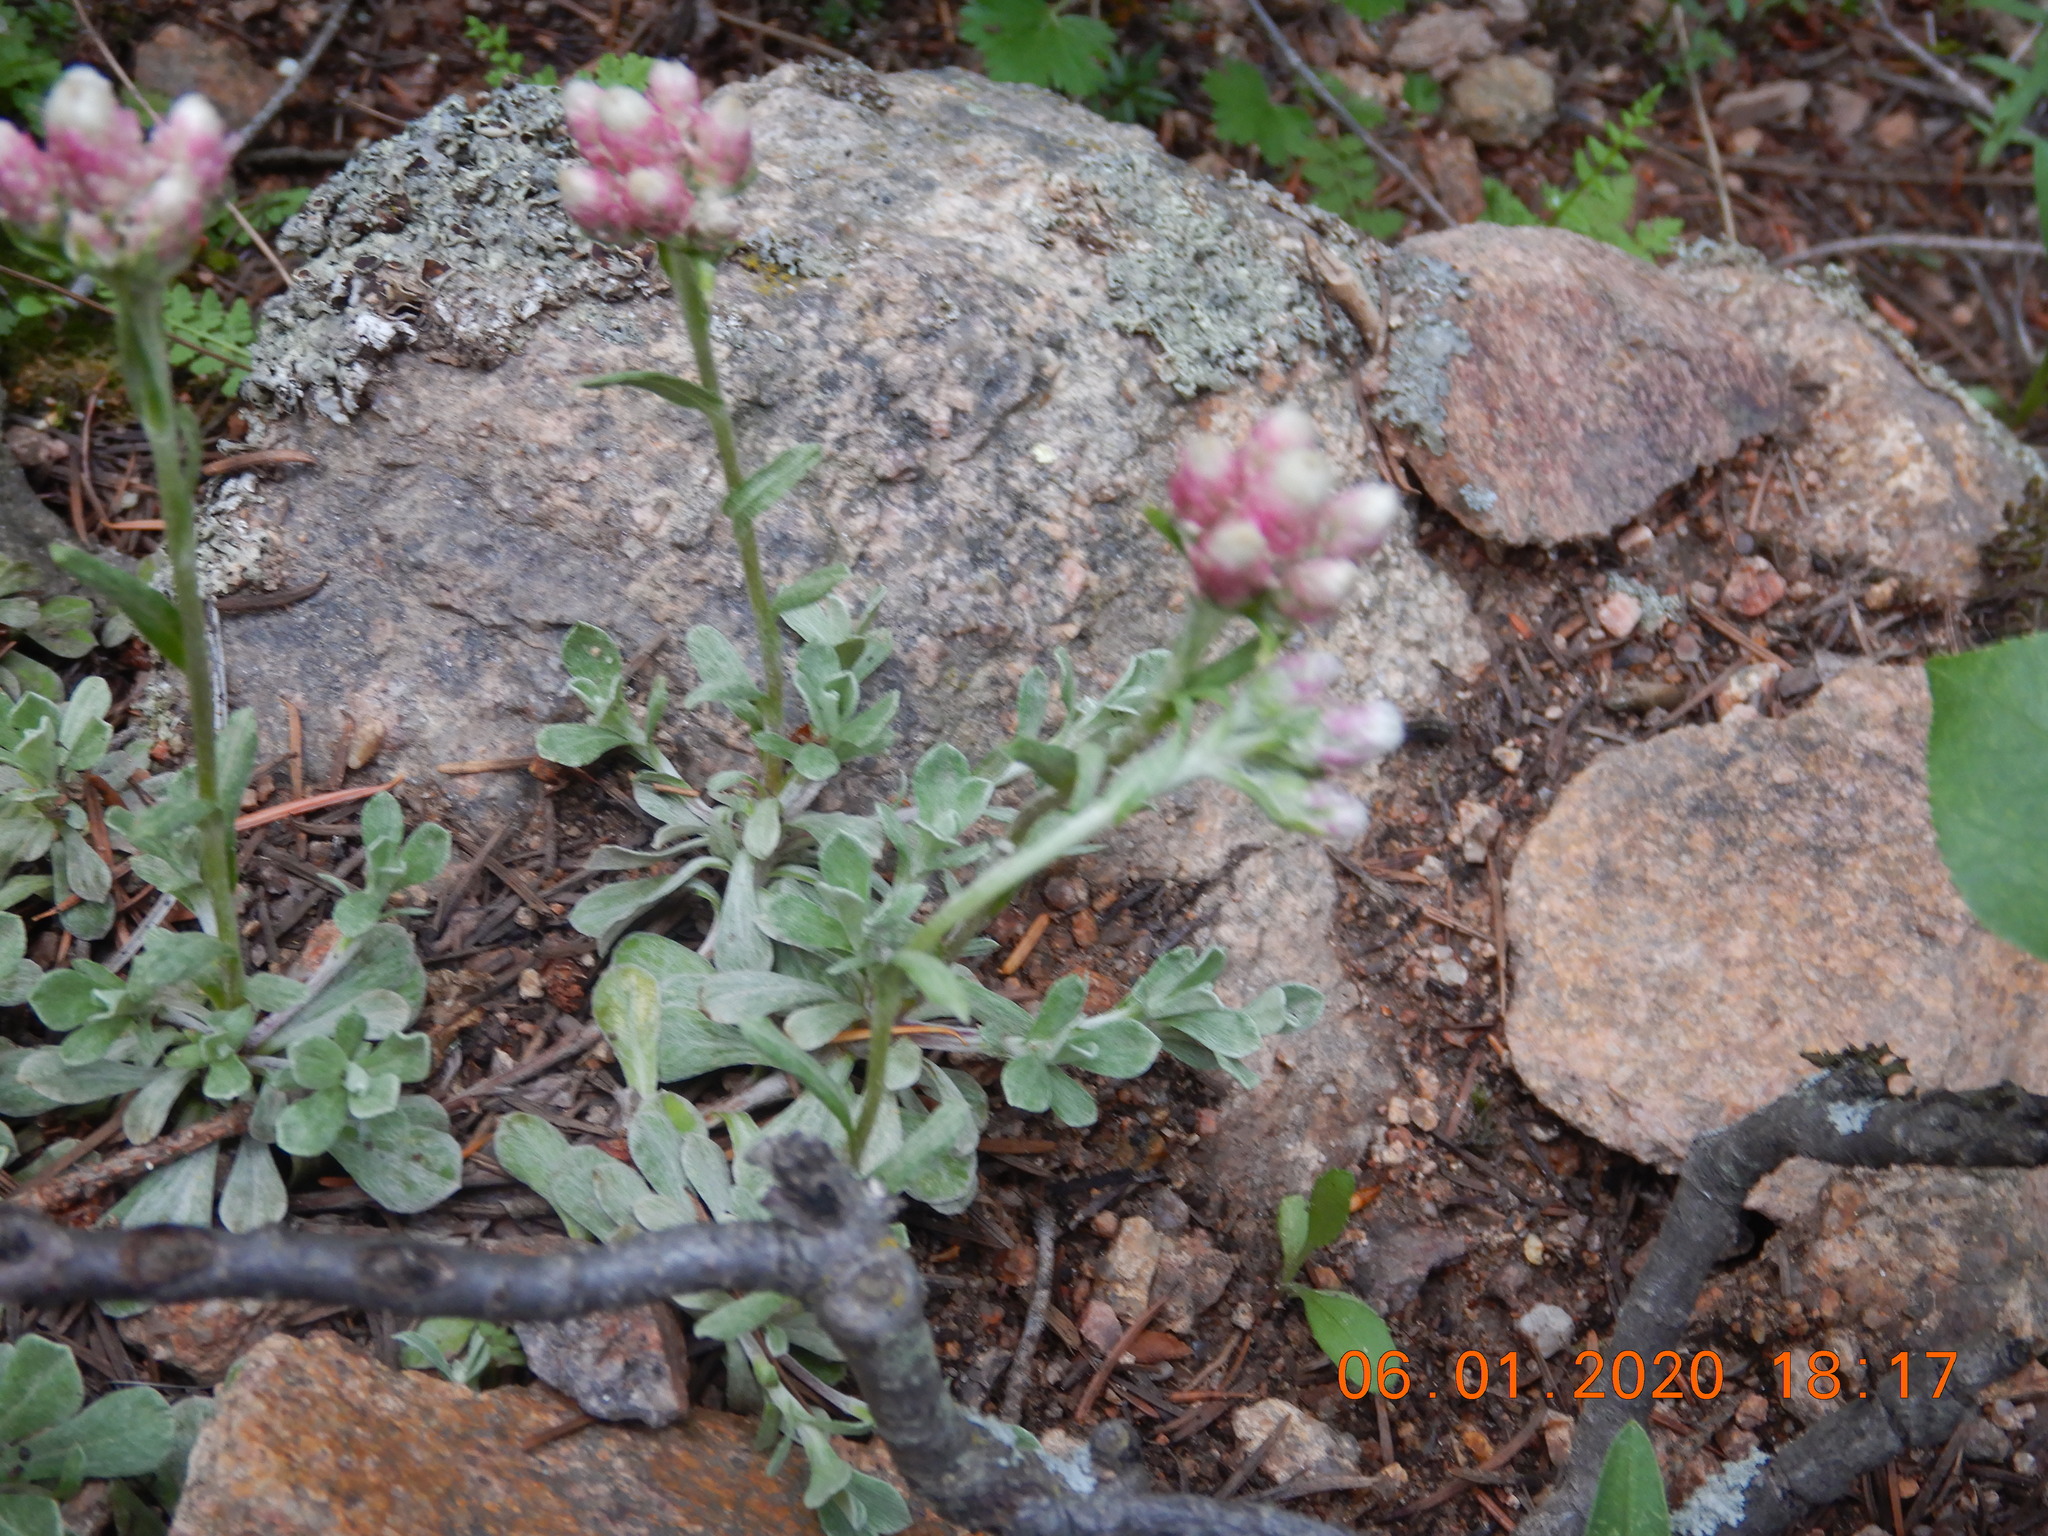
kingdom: Plantae
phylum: Tracheophyta
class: Magnoliopsida
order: Asterales
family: Asteraceae
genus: Antennaria
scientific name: Antennaria rosea
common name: Rosy pussytoes
